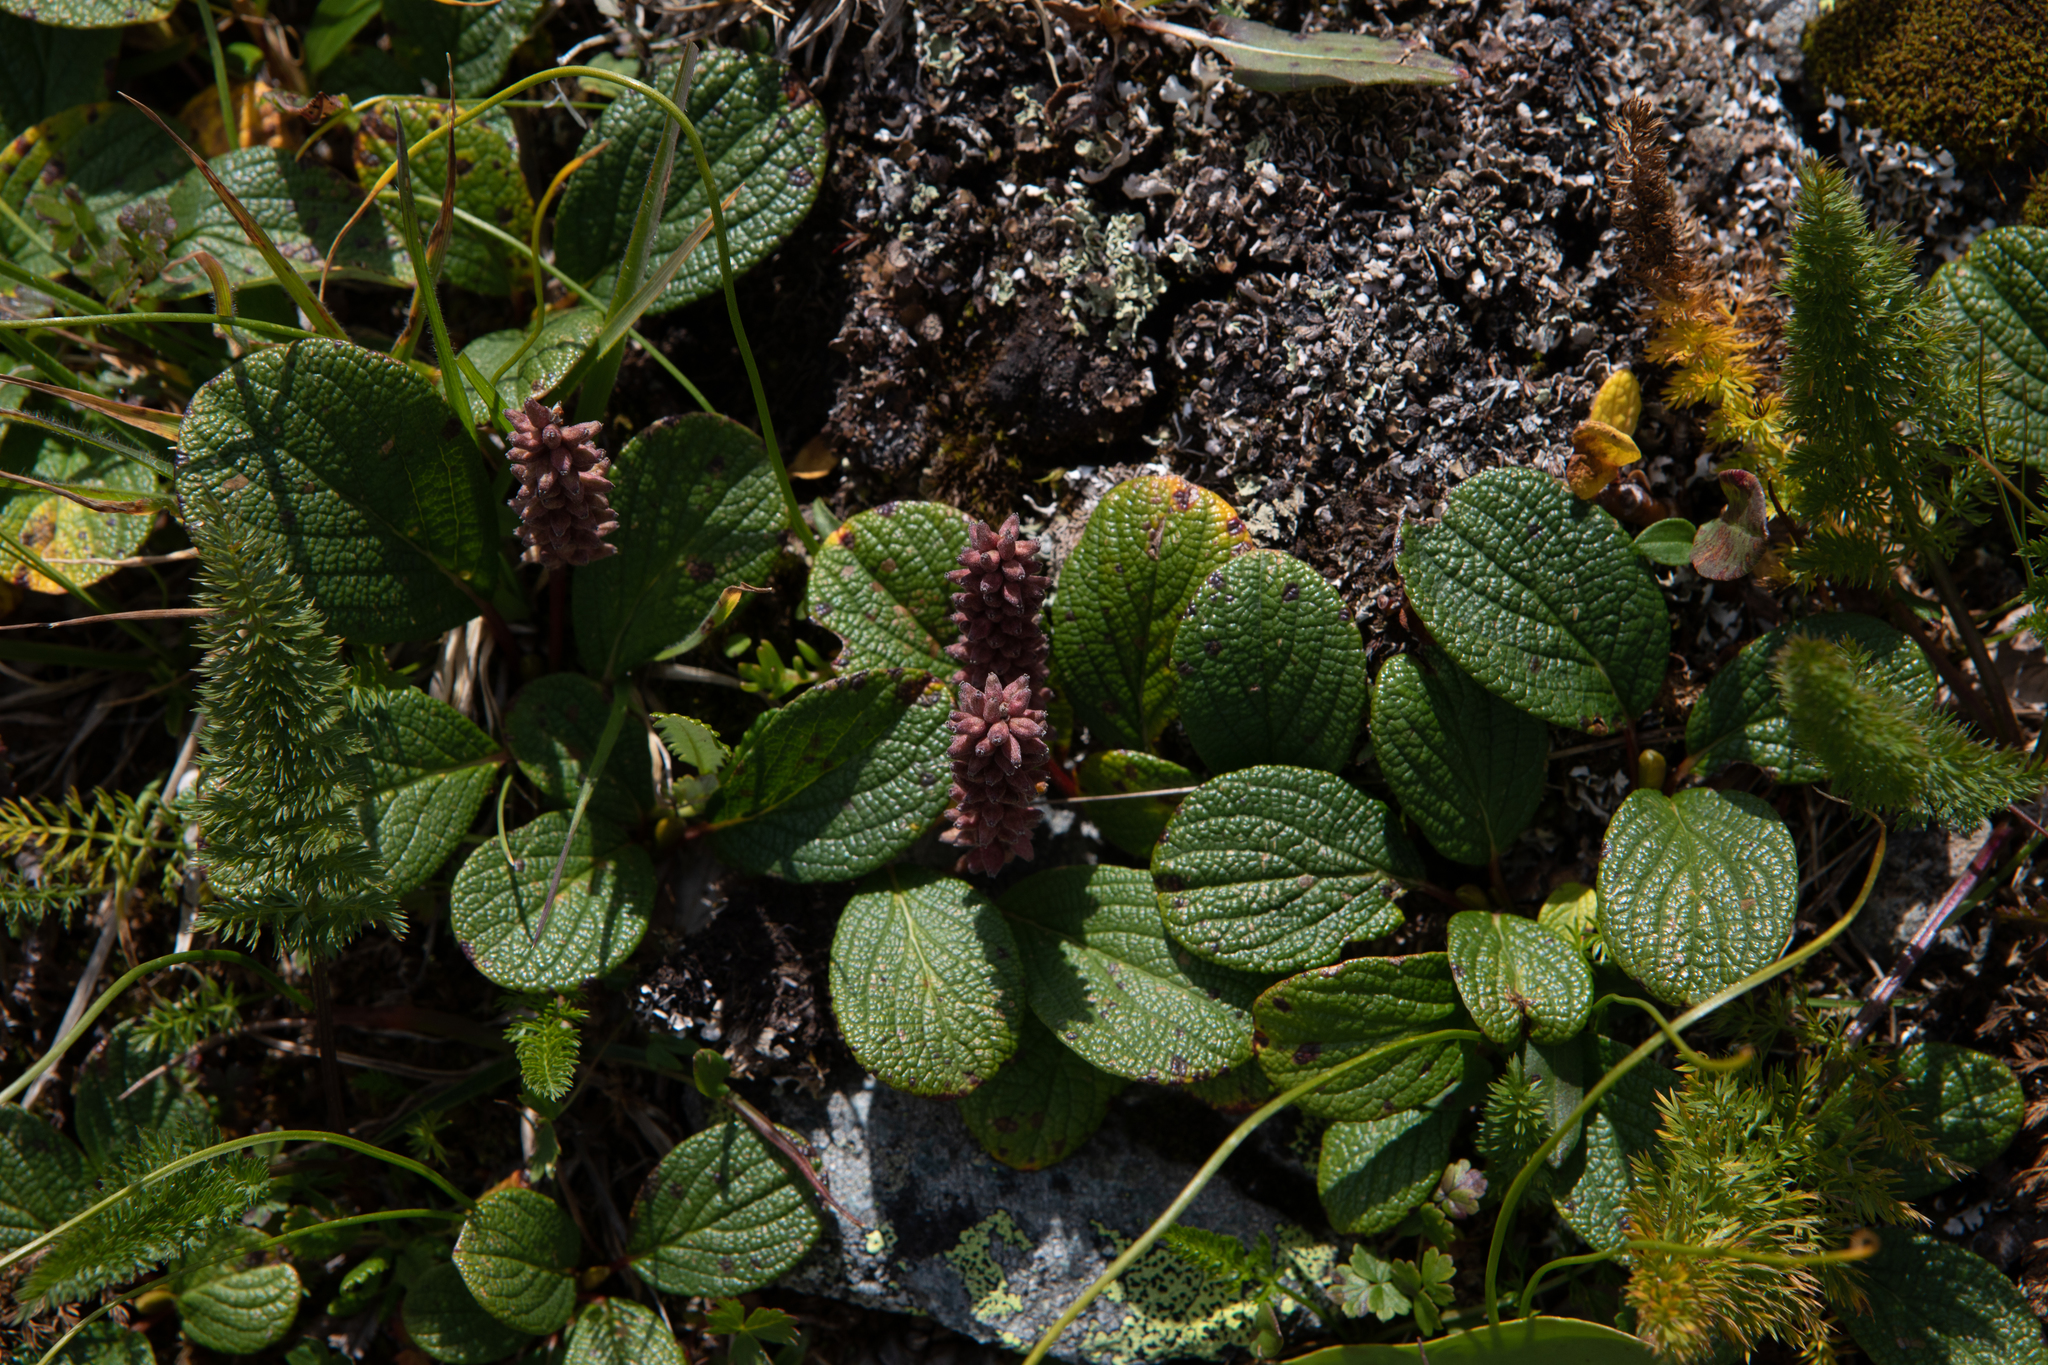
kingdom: Plantae
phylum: Tracheophyta
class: Magnoliopsida
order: Malpighiales
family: Salicaceae
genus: Salix
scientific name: Salix reticulata
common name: Net-leaved willow
